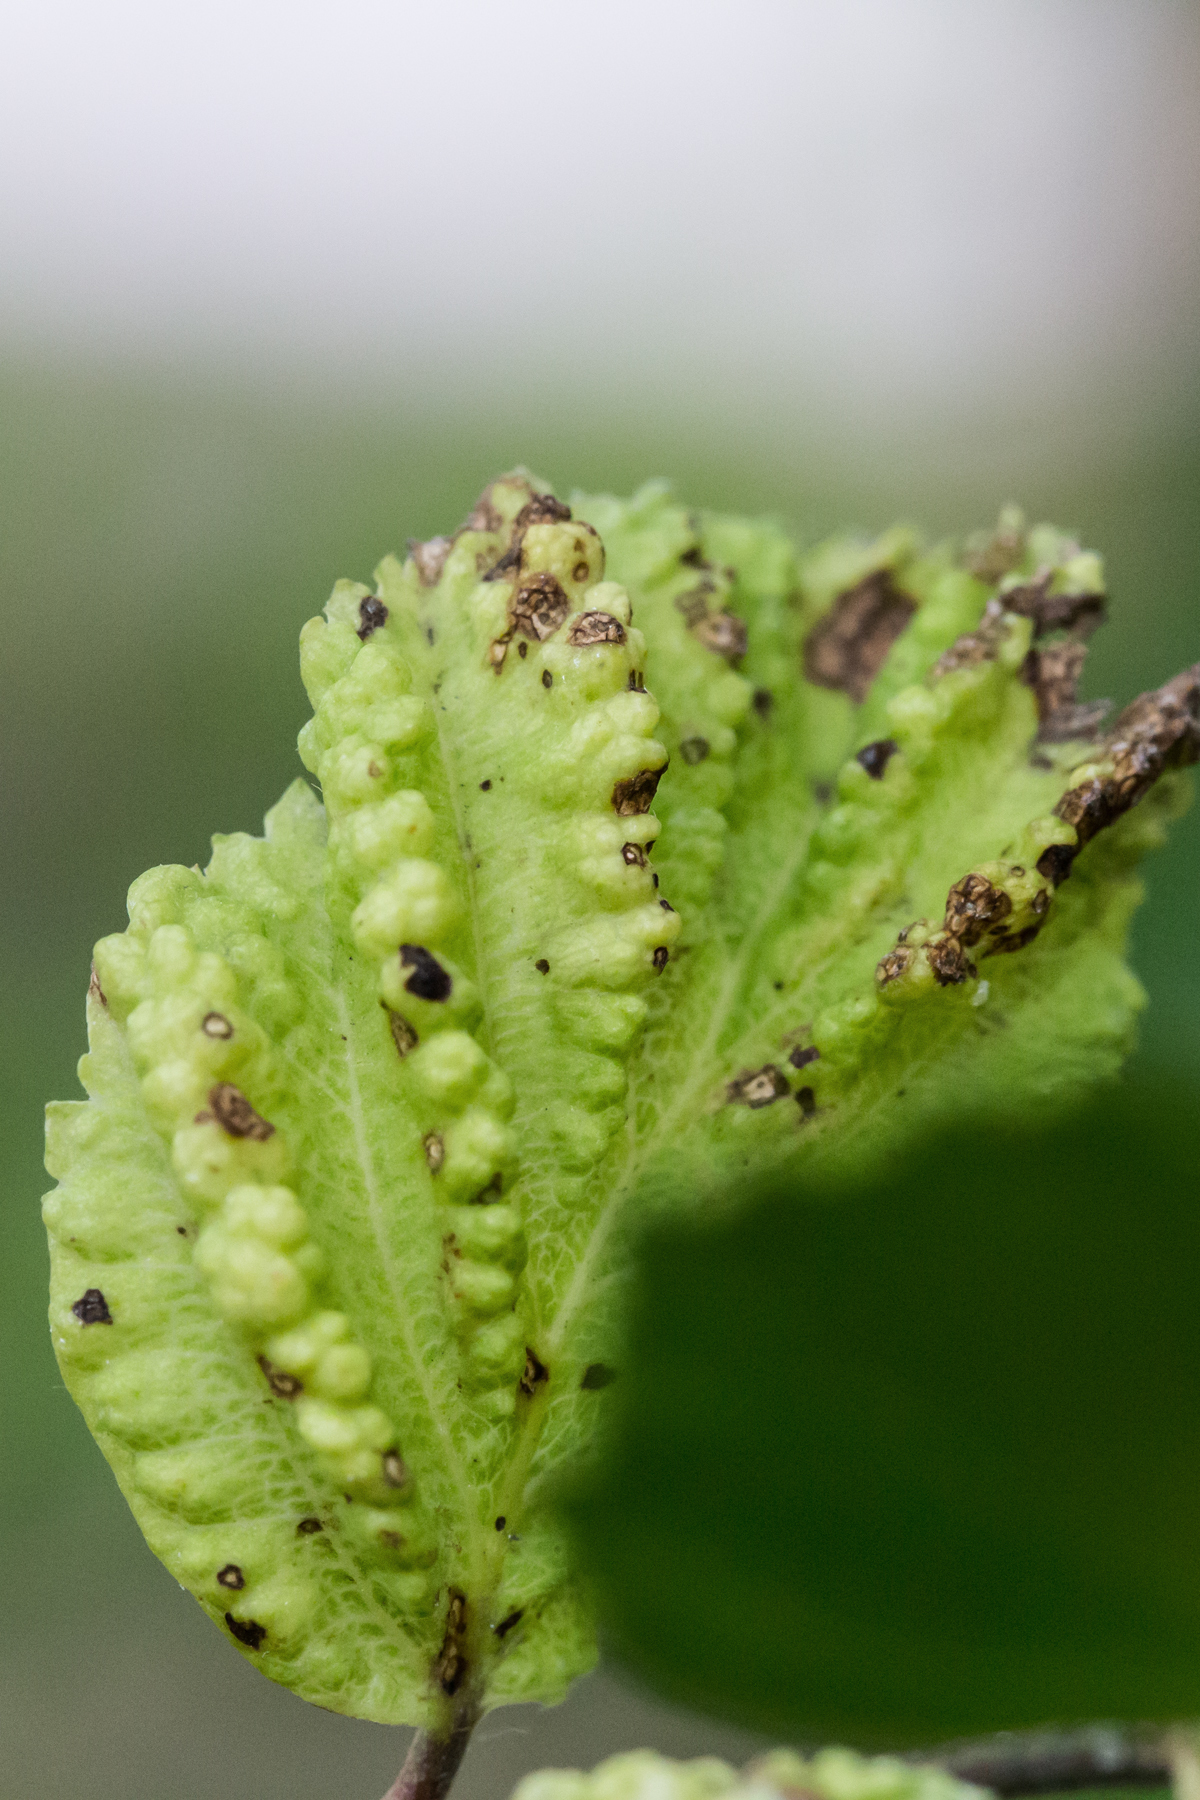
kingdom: Animalia
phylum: Arthropoda
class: Insecta
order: Hemiptera
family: Aphididae
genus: Hamamelistes
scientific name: Hamamelistes spinosus
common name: Witch hazel gall aphid
